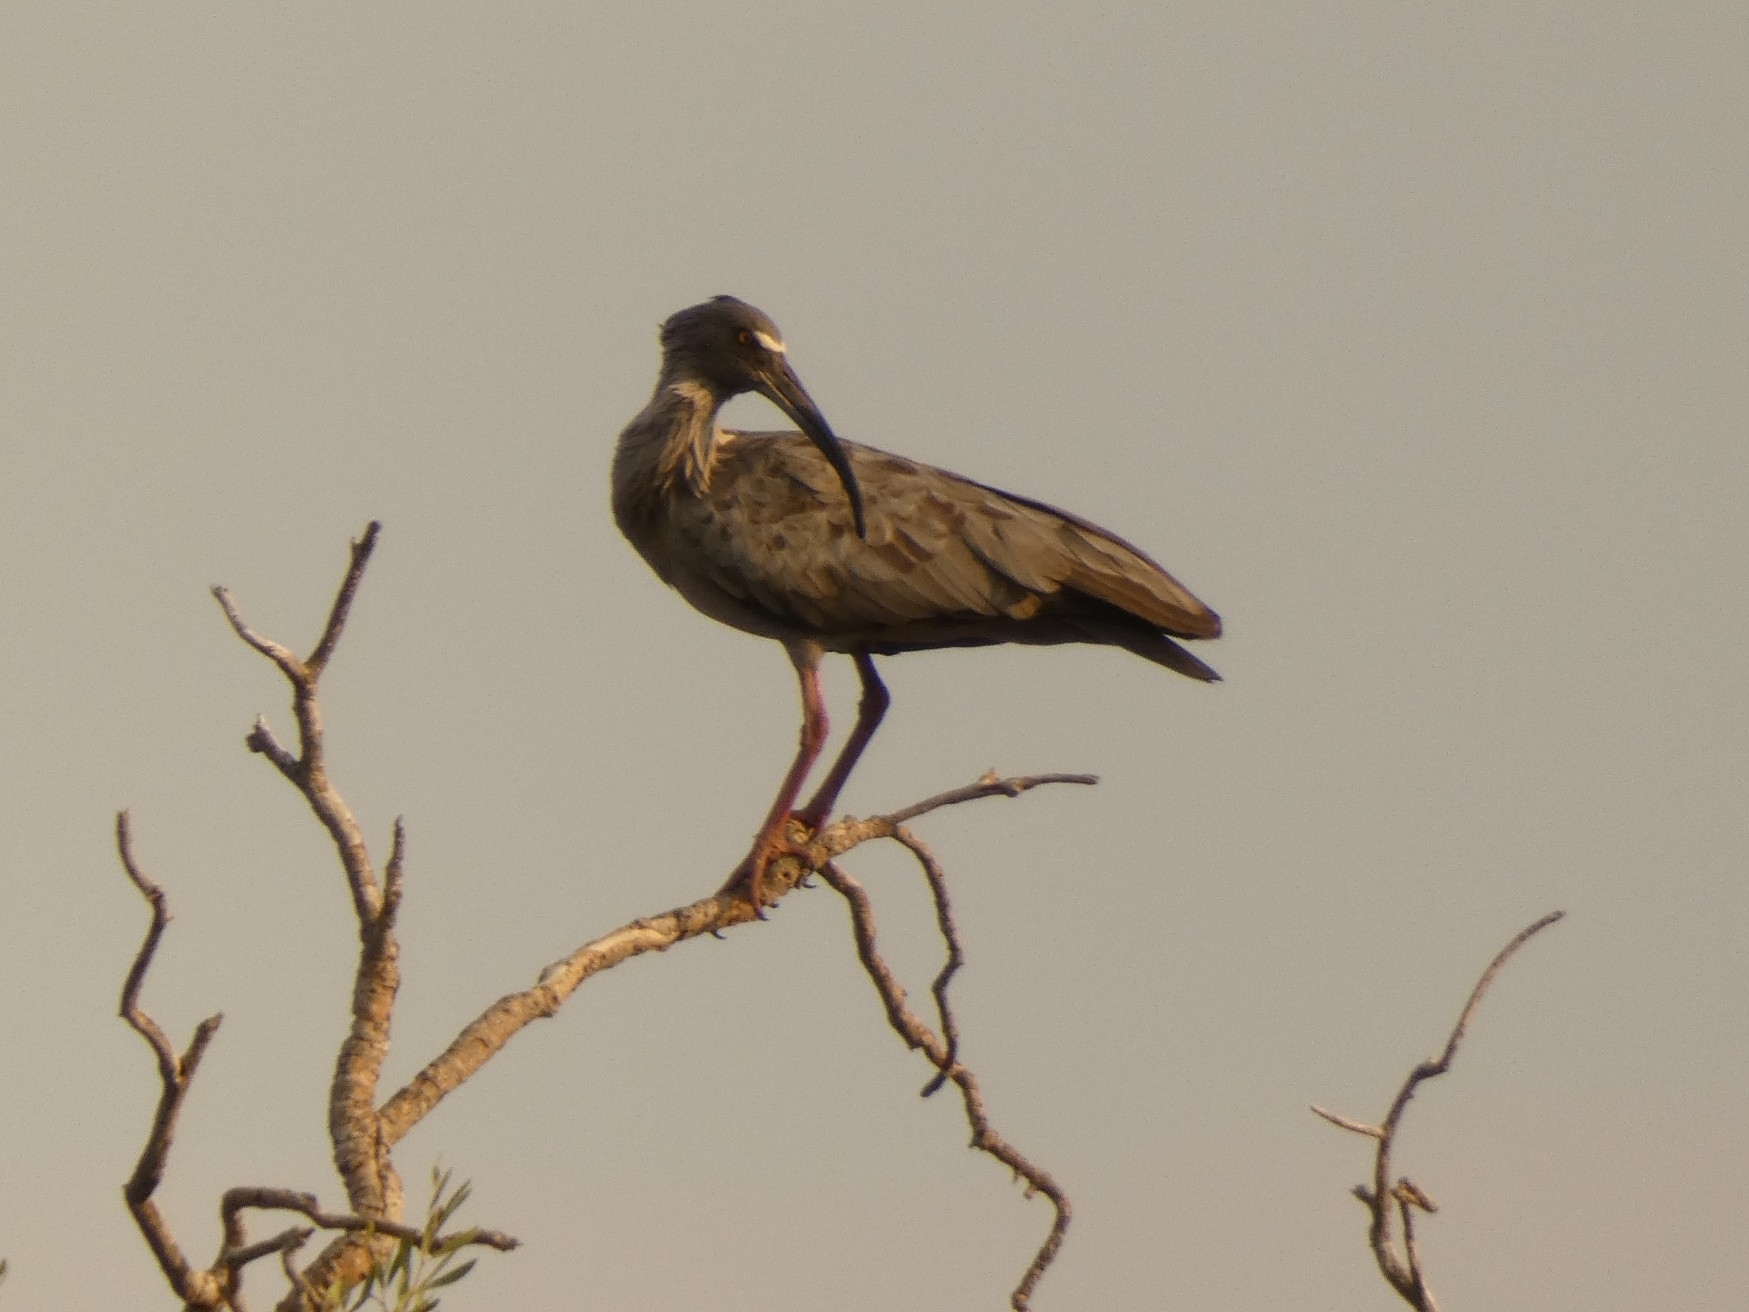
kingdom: Animalia
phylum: Chordata
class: Aves
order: Pelecaniformes
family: Threskiornithidae
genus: Theristicus
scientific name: Theristicus caerulescens
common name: Plumbeous ibis
